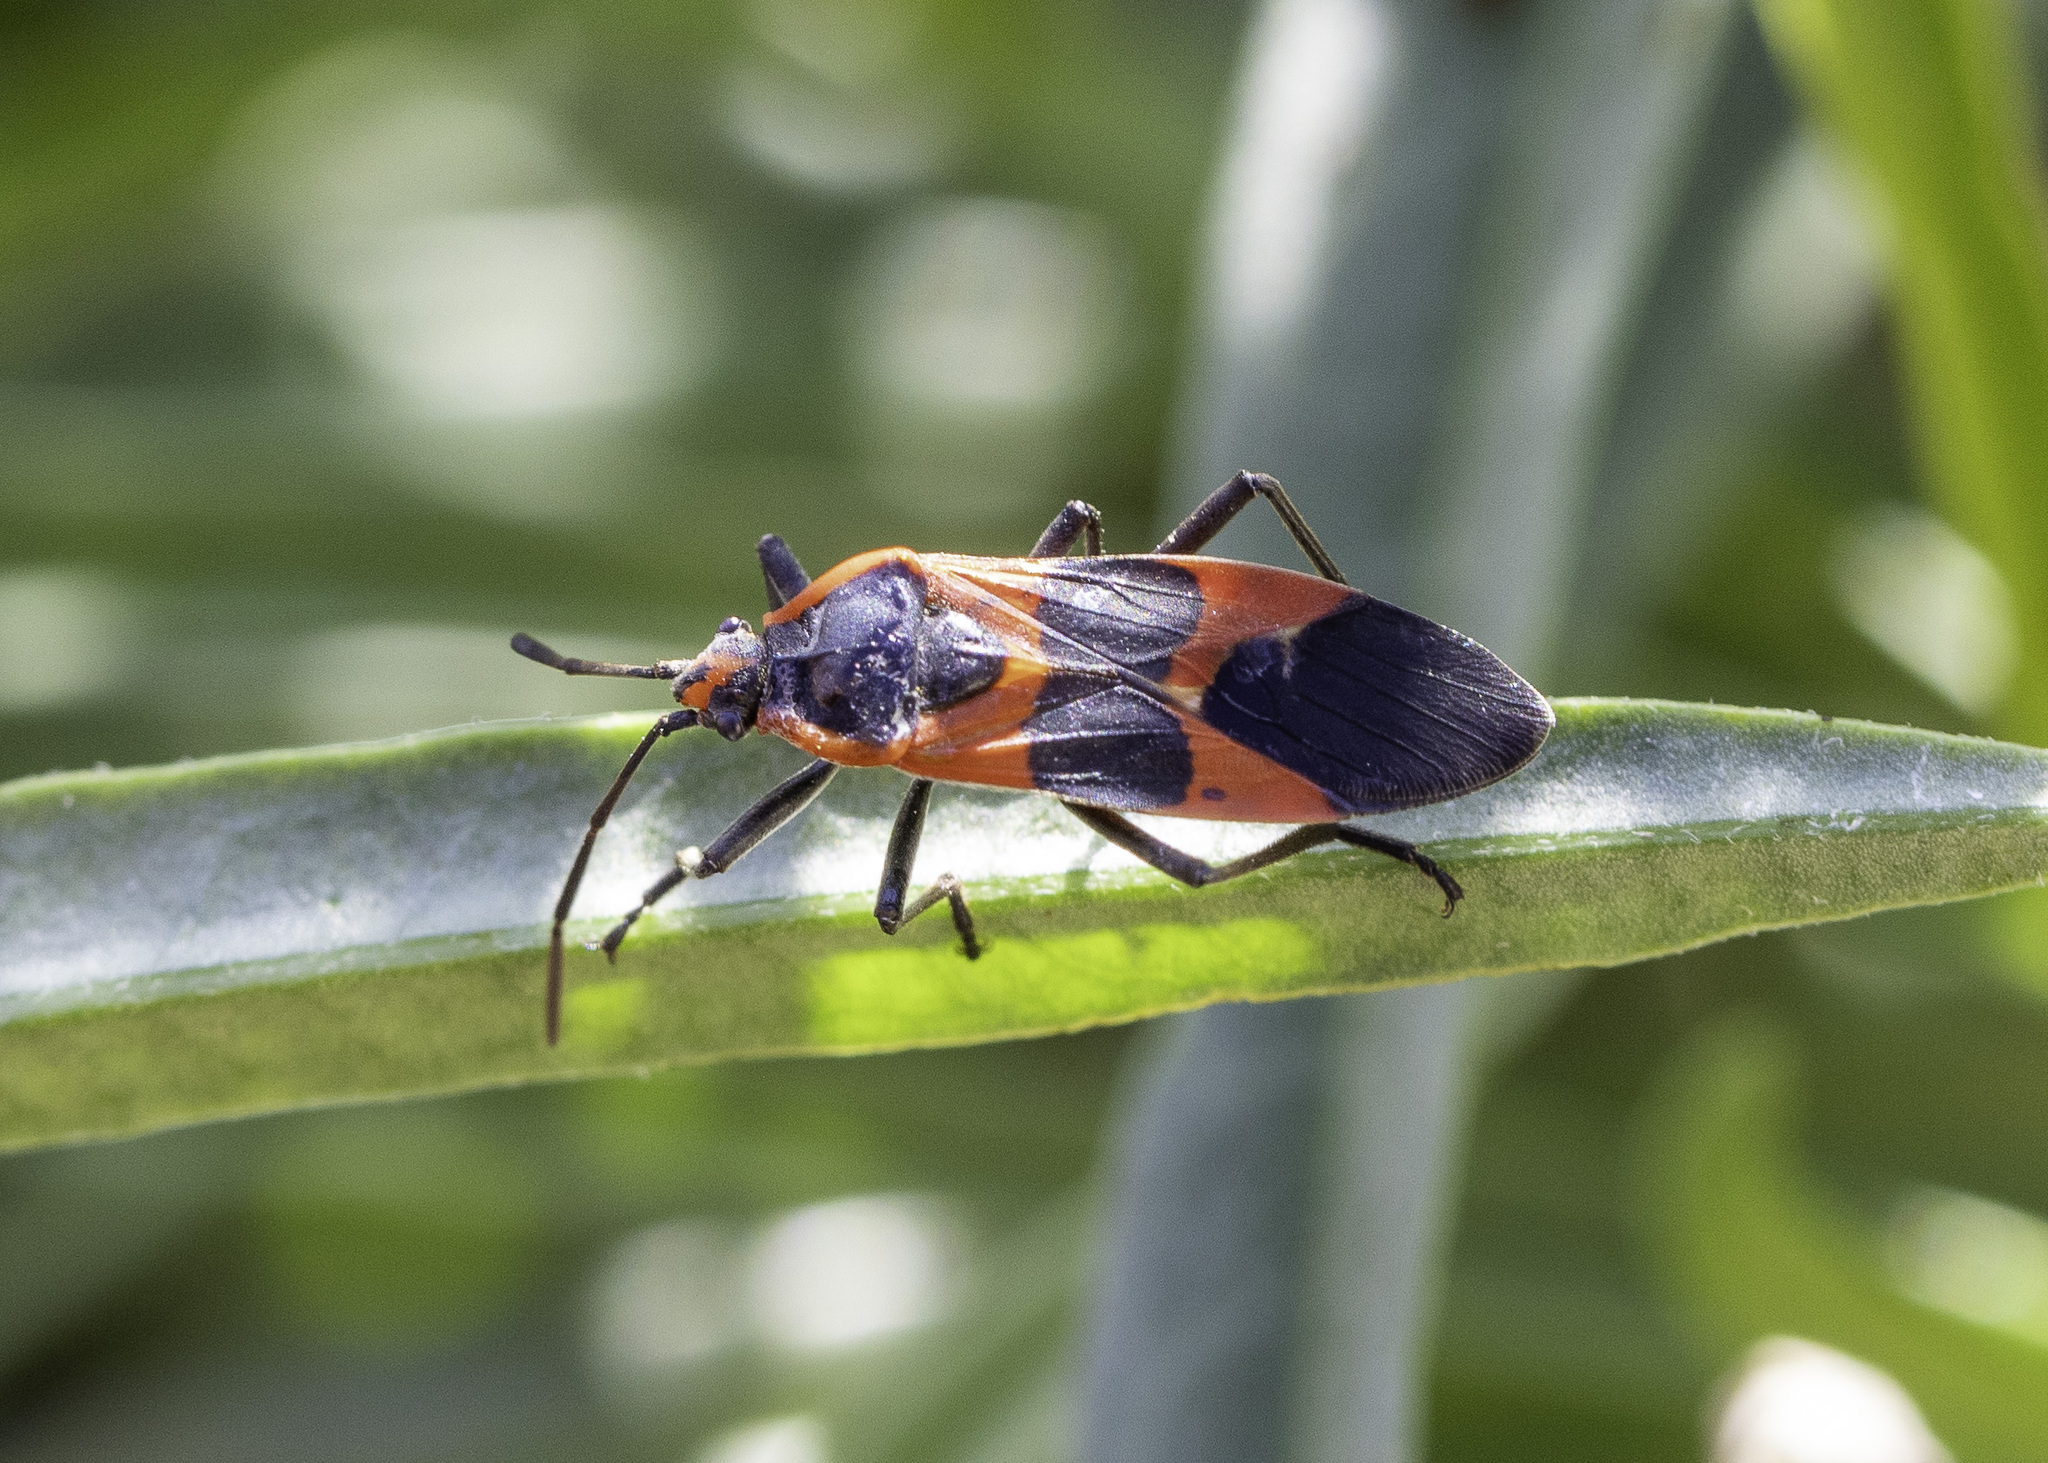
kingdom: Animalia
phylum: Arthropoda
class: Insecta
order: Hemiptera
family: Lygaeidae
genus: Oncopeltus
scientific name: Oncopeltus fasciatus
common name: Large milkweed bug
